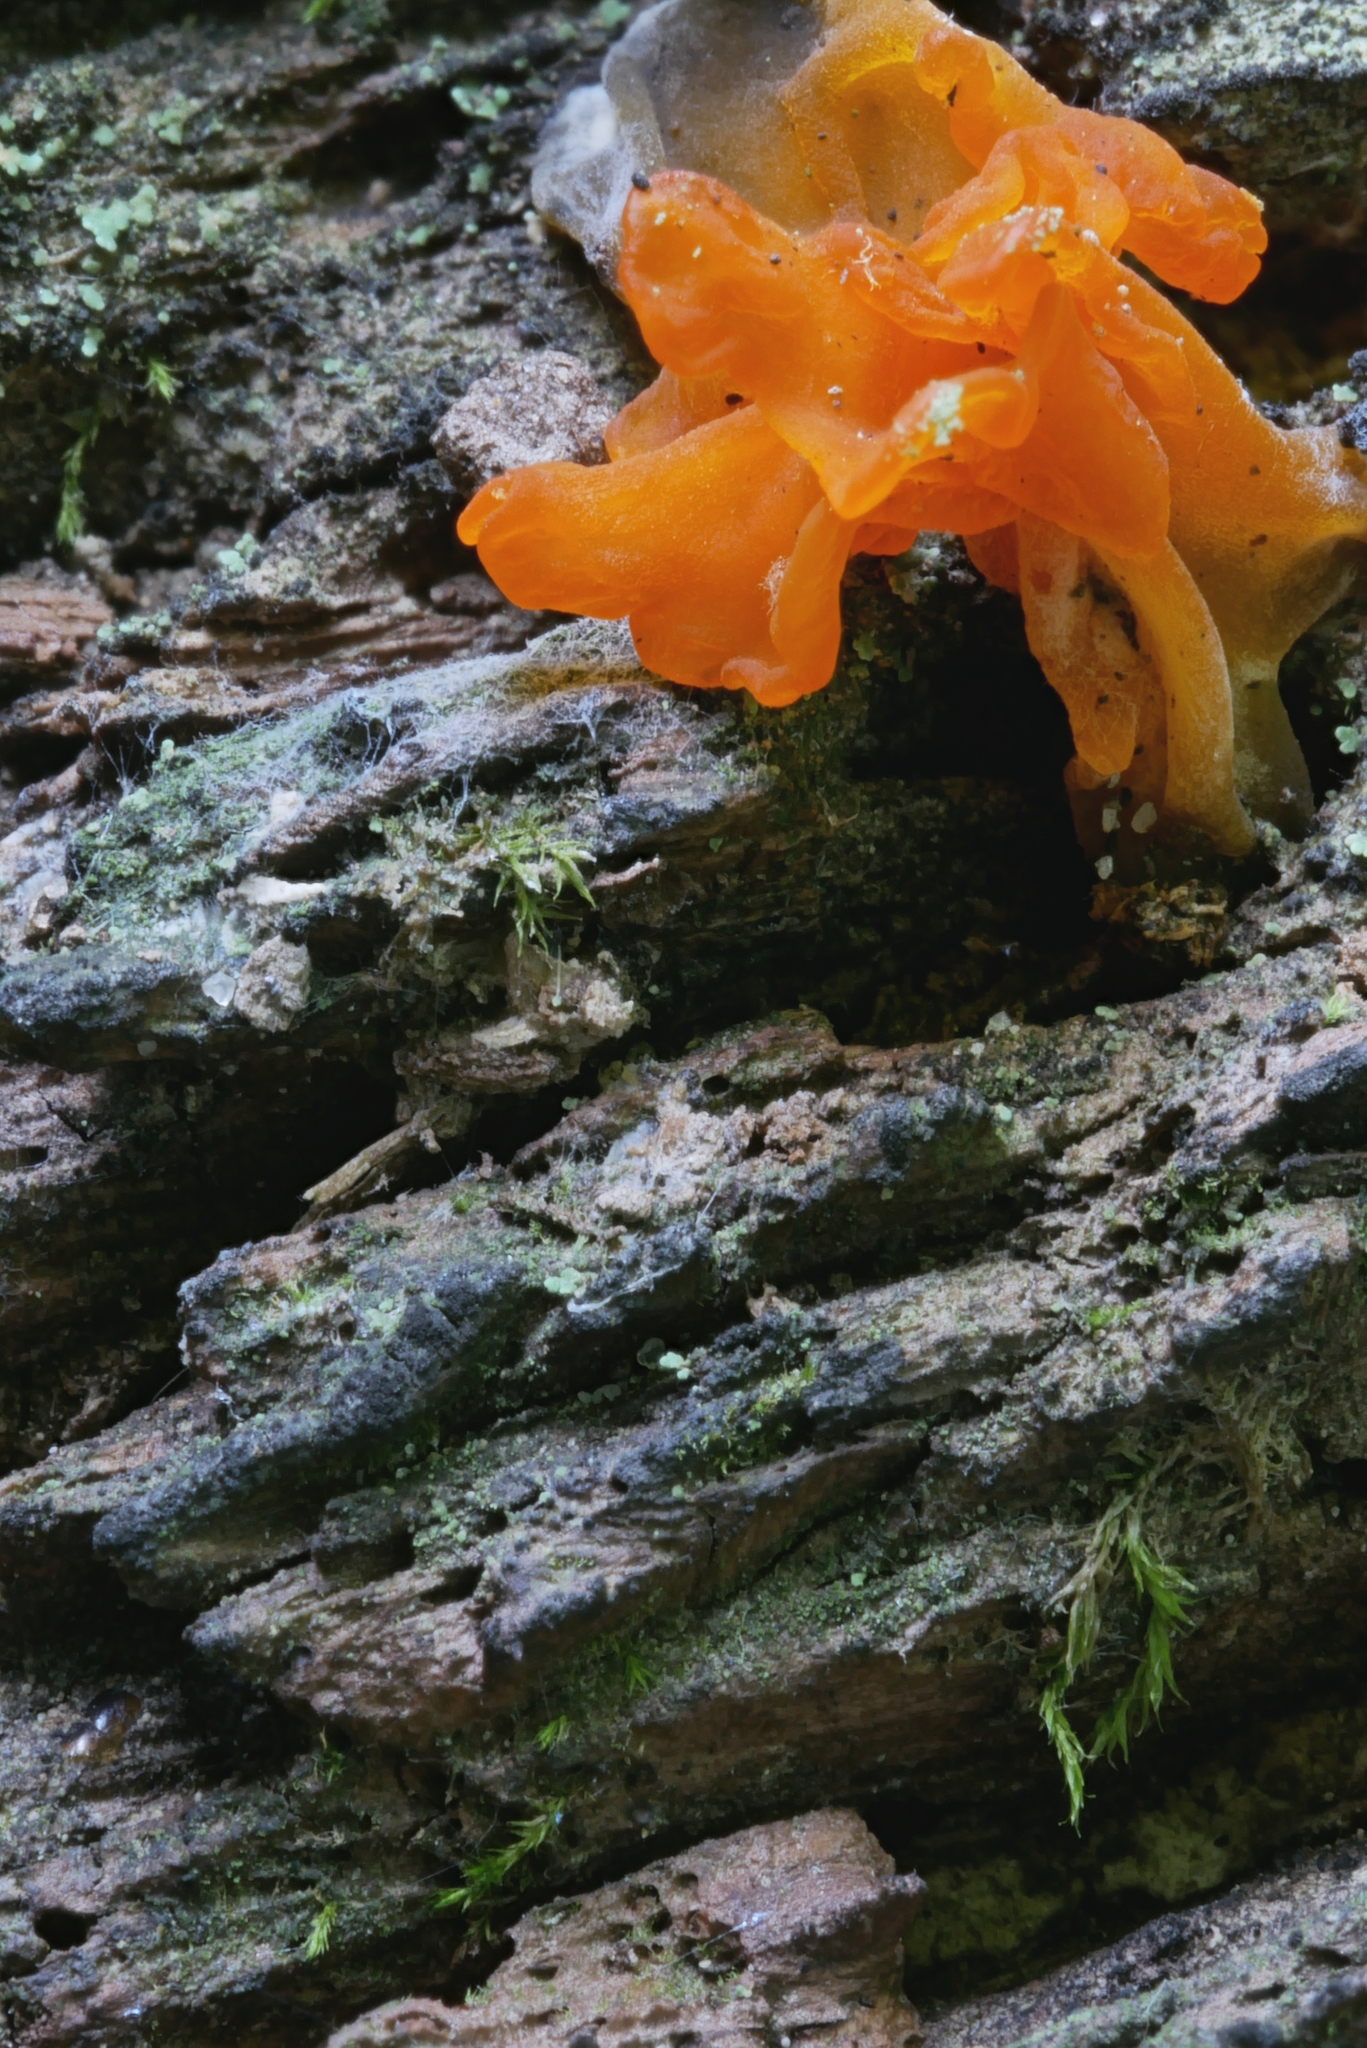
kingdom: Fungi
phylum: Basidiomycota
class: Dacrymycetes
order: Dacrymycetales
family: Dacrymycetaceae
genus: Dacrymyces
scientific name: Dacrymyces chrysospermus
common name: Orange jelly spot
